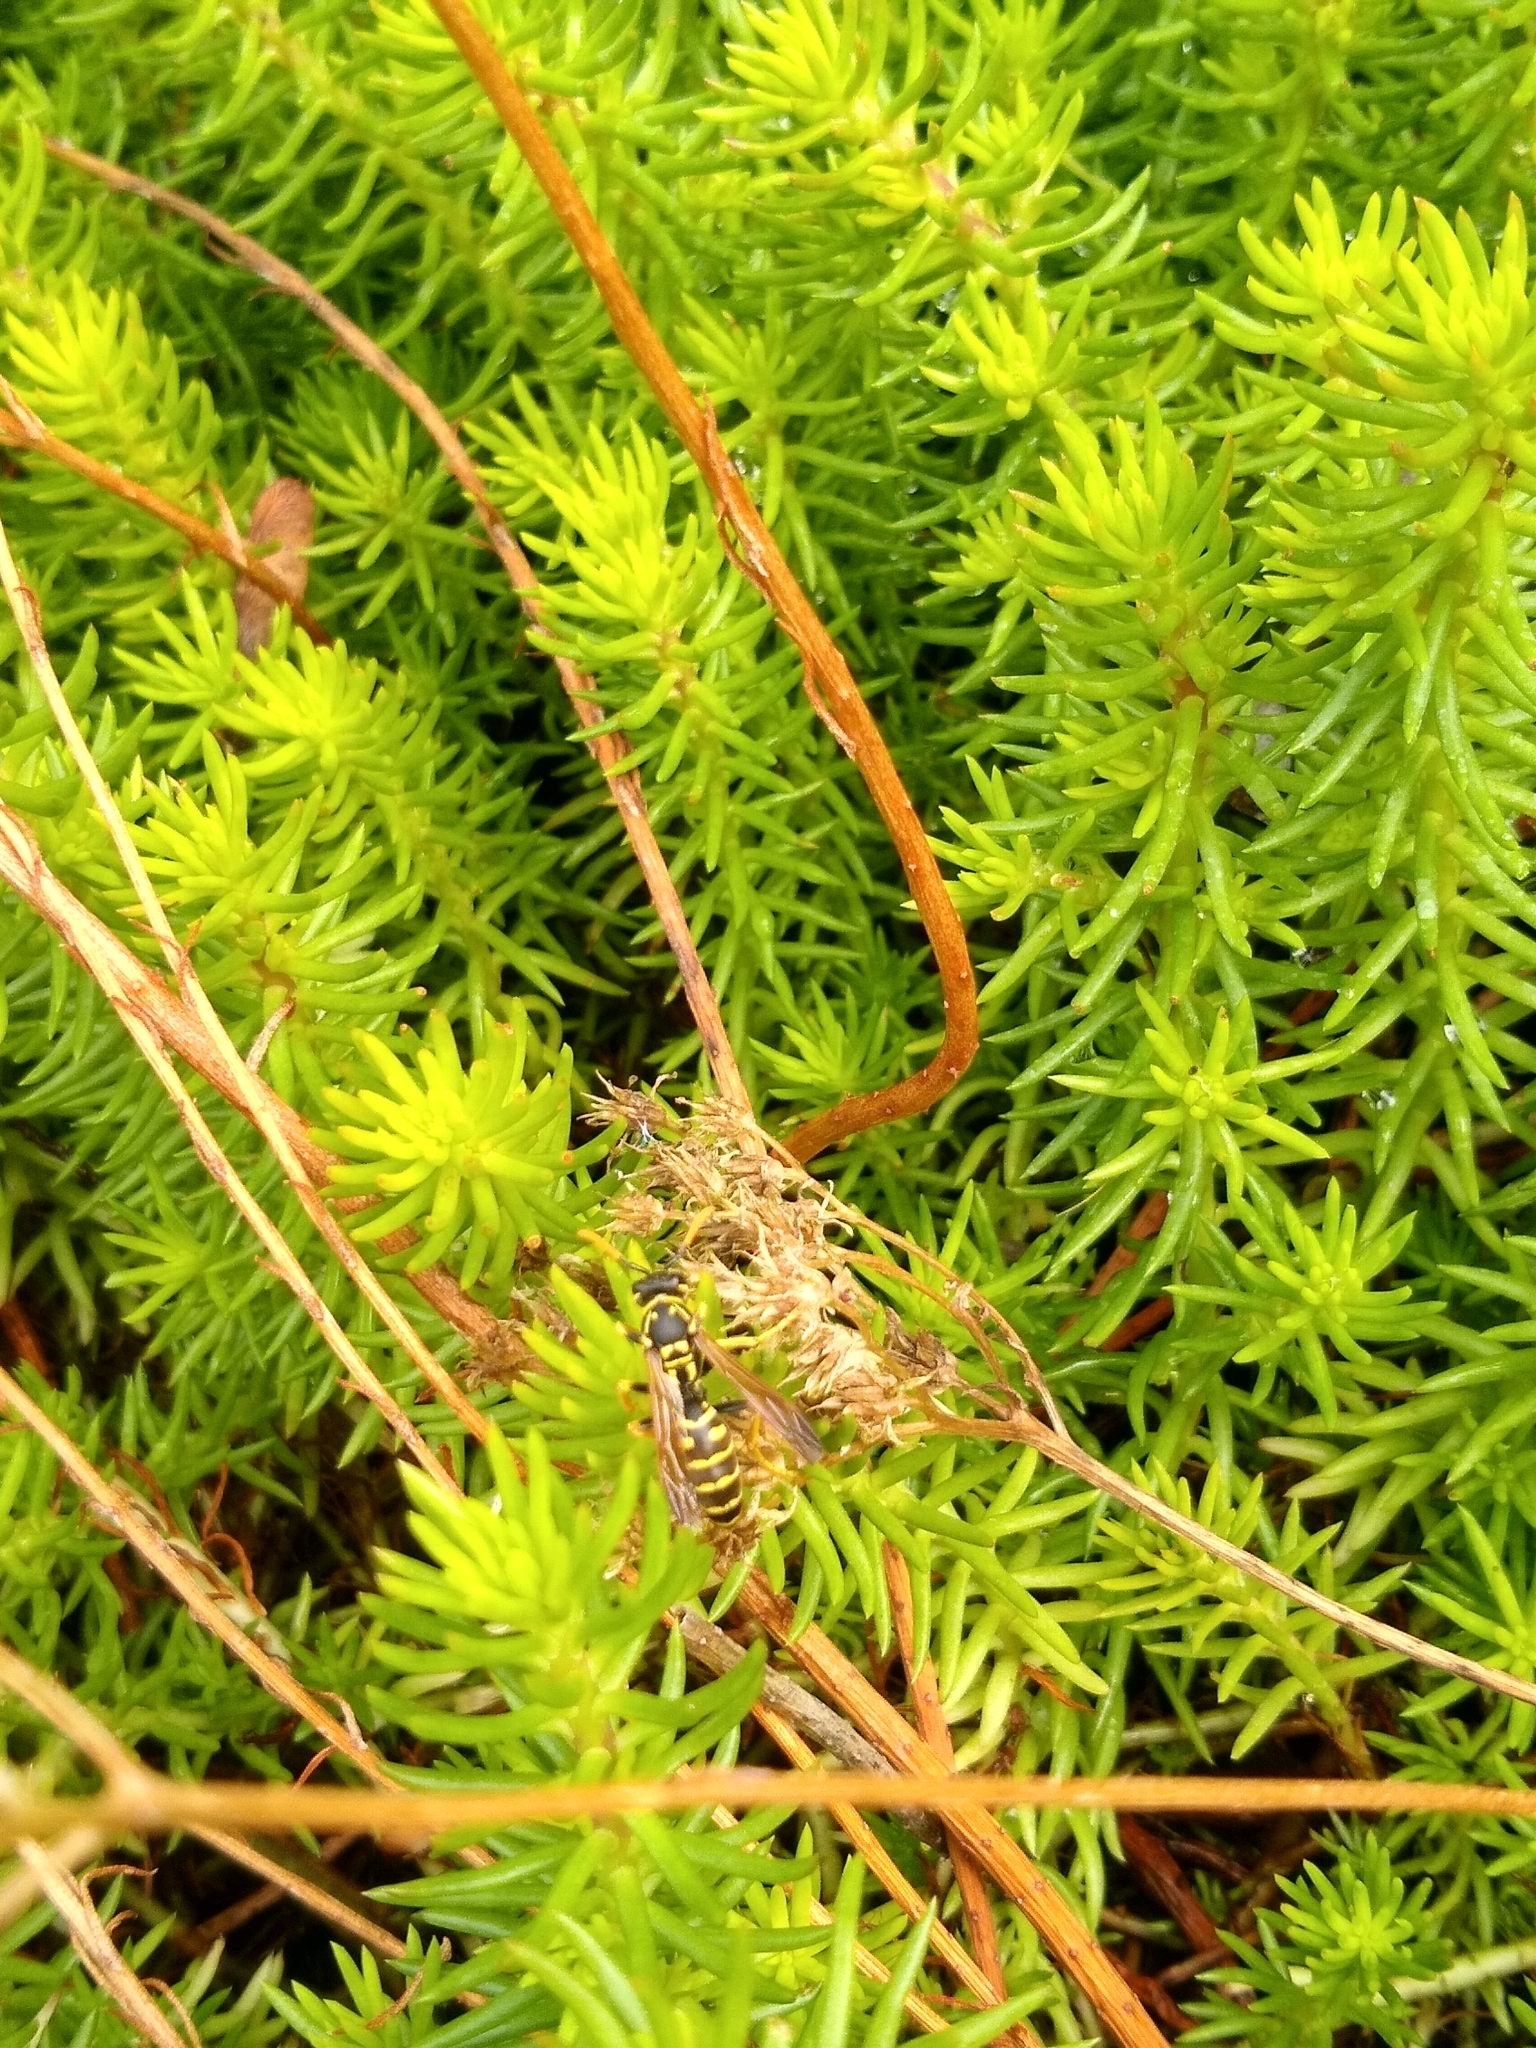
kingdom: Animalia
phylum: Arthropoda
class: Insecta
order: Hymenoptera
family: Eumenidae
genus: Polistes
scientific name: Polistes dominula
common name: Paper wasp
